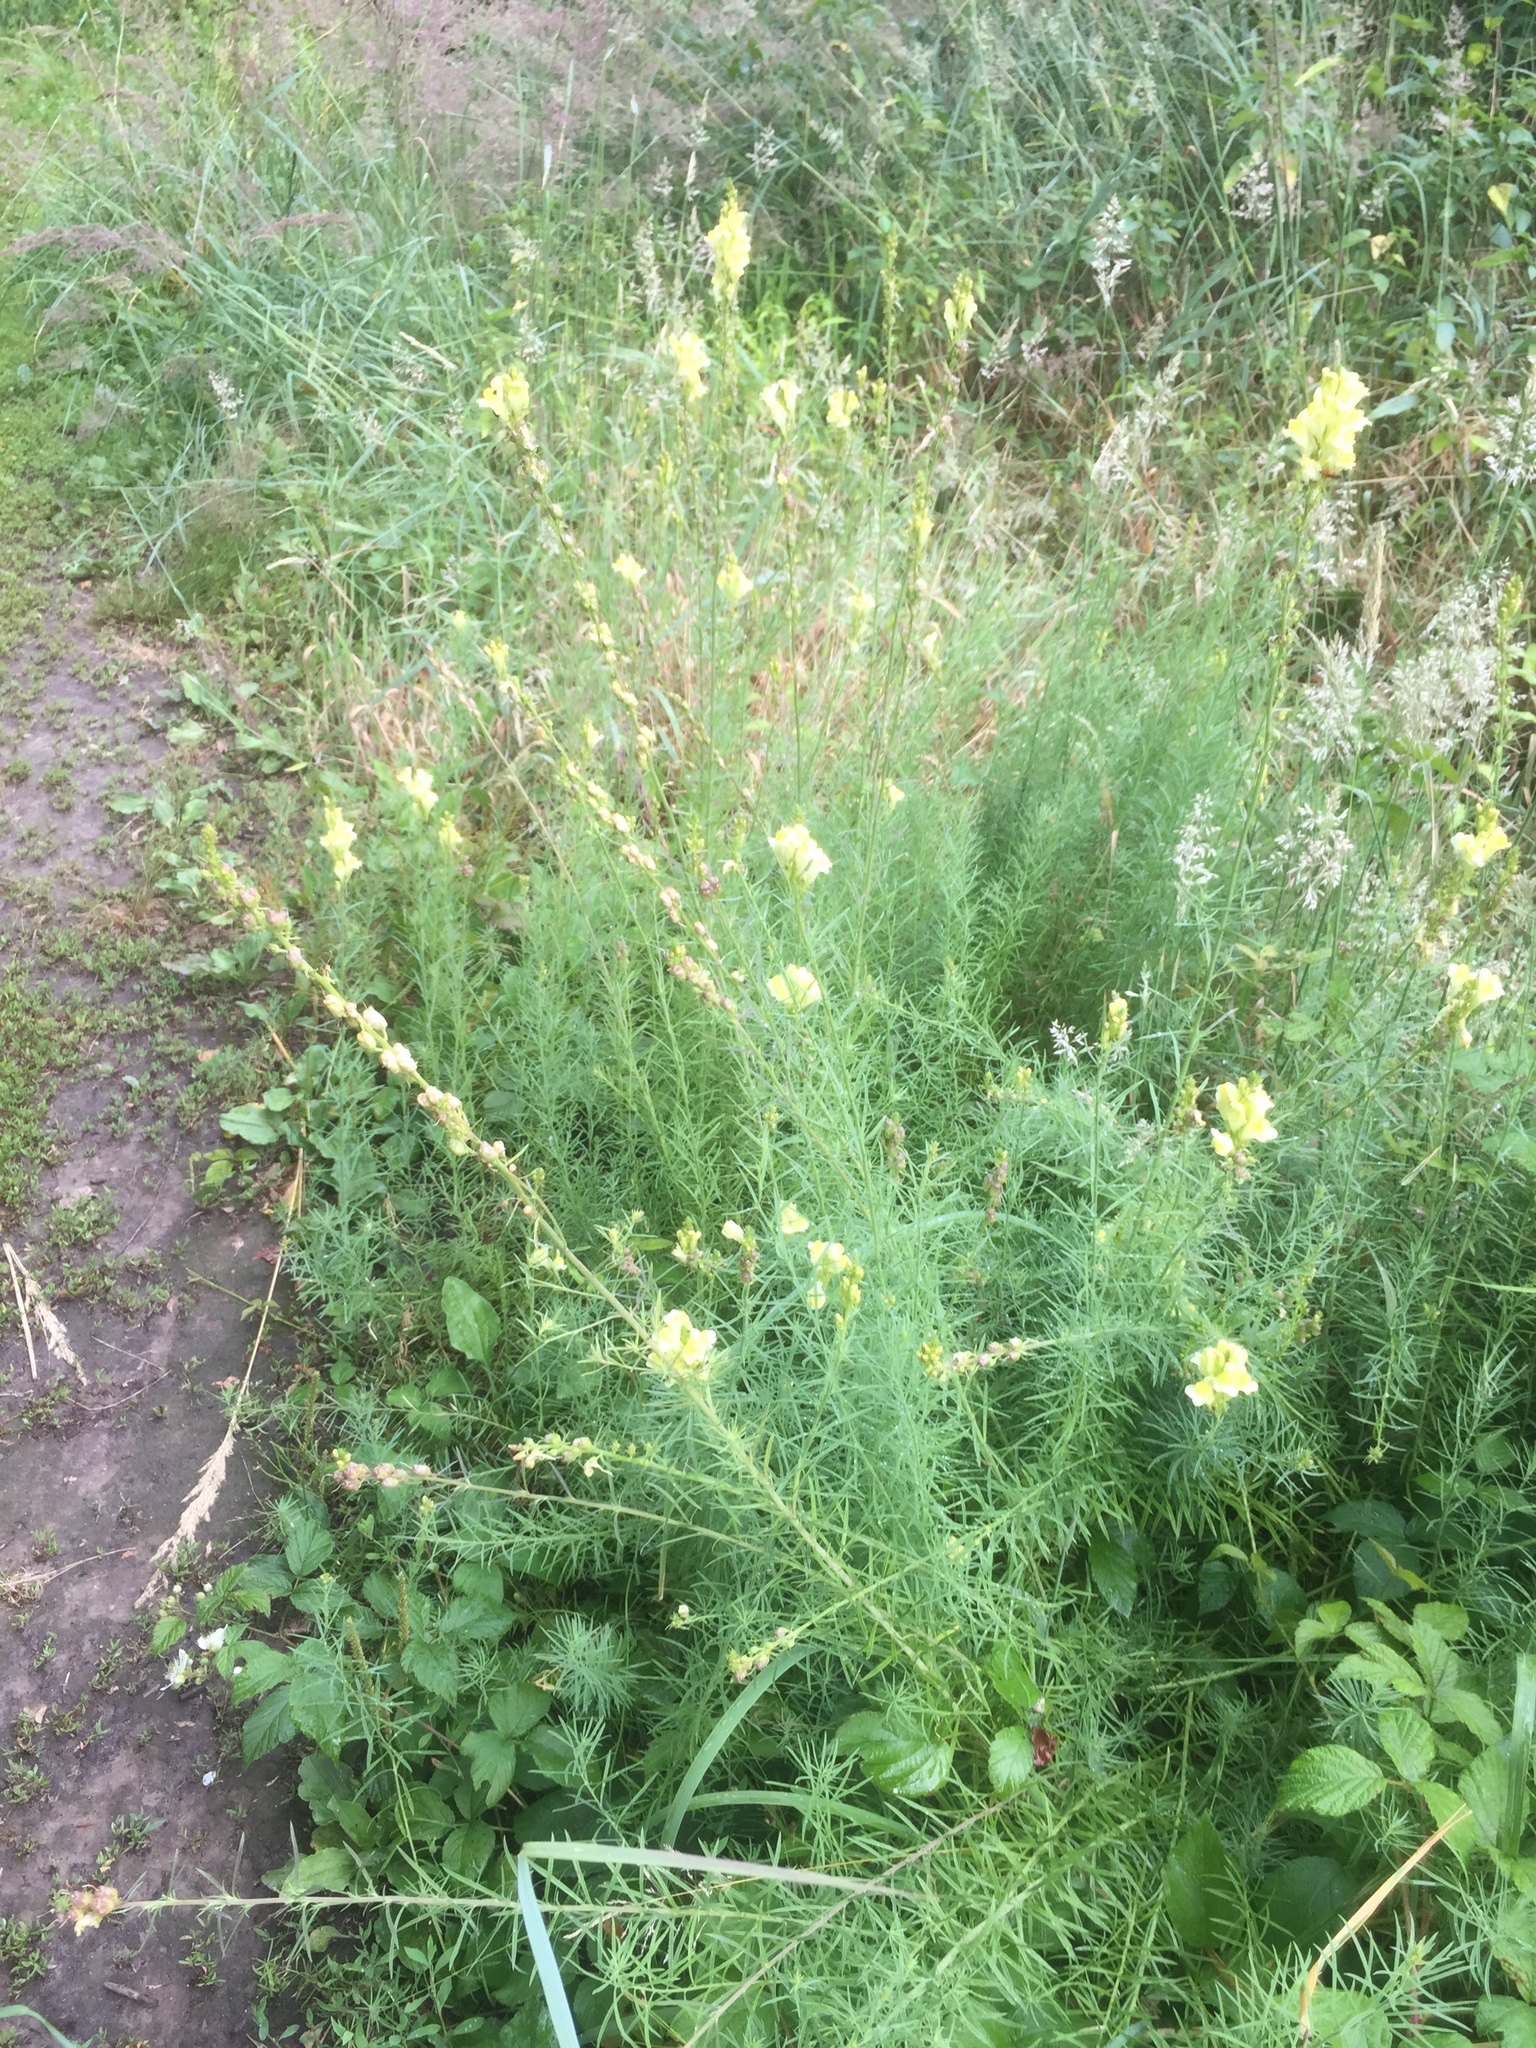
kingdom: Plantae
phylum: Tracheophyta
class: Magnoliopsida
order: Lamiales
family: Plantaginaceae
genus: Linaria
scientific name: Linaria vulgaris
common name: Butter and eggs
